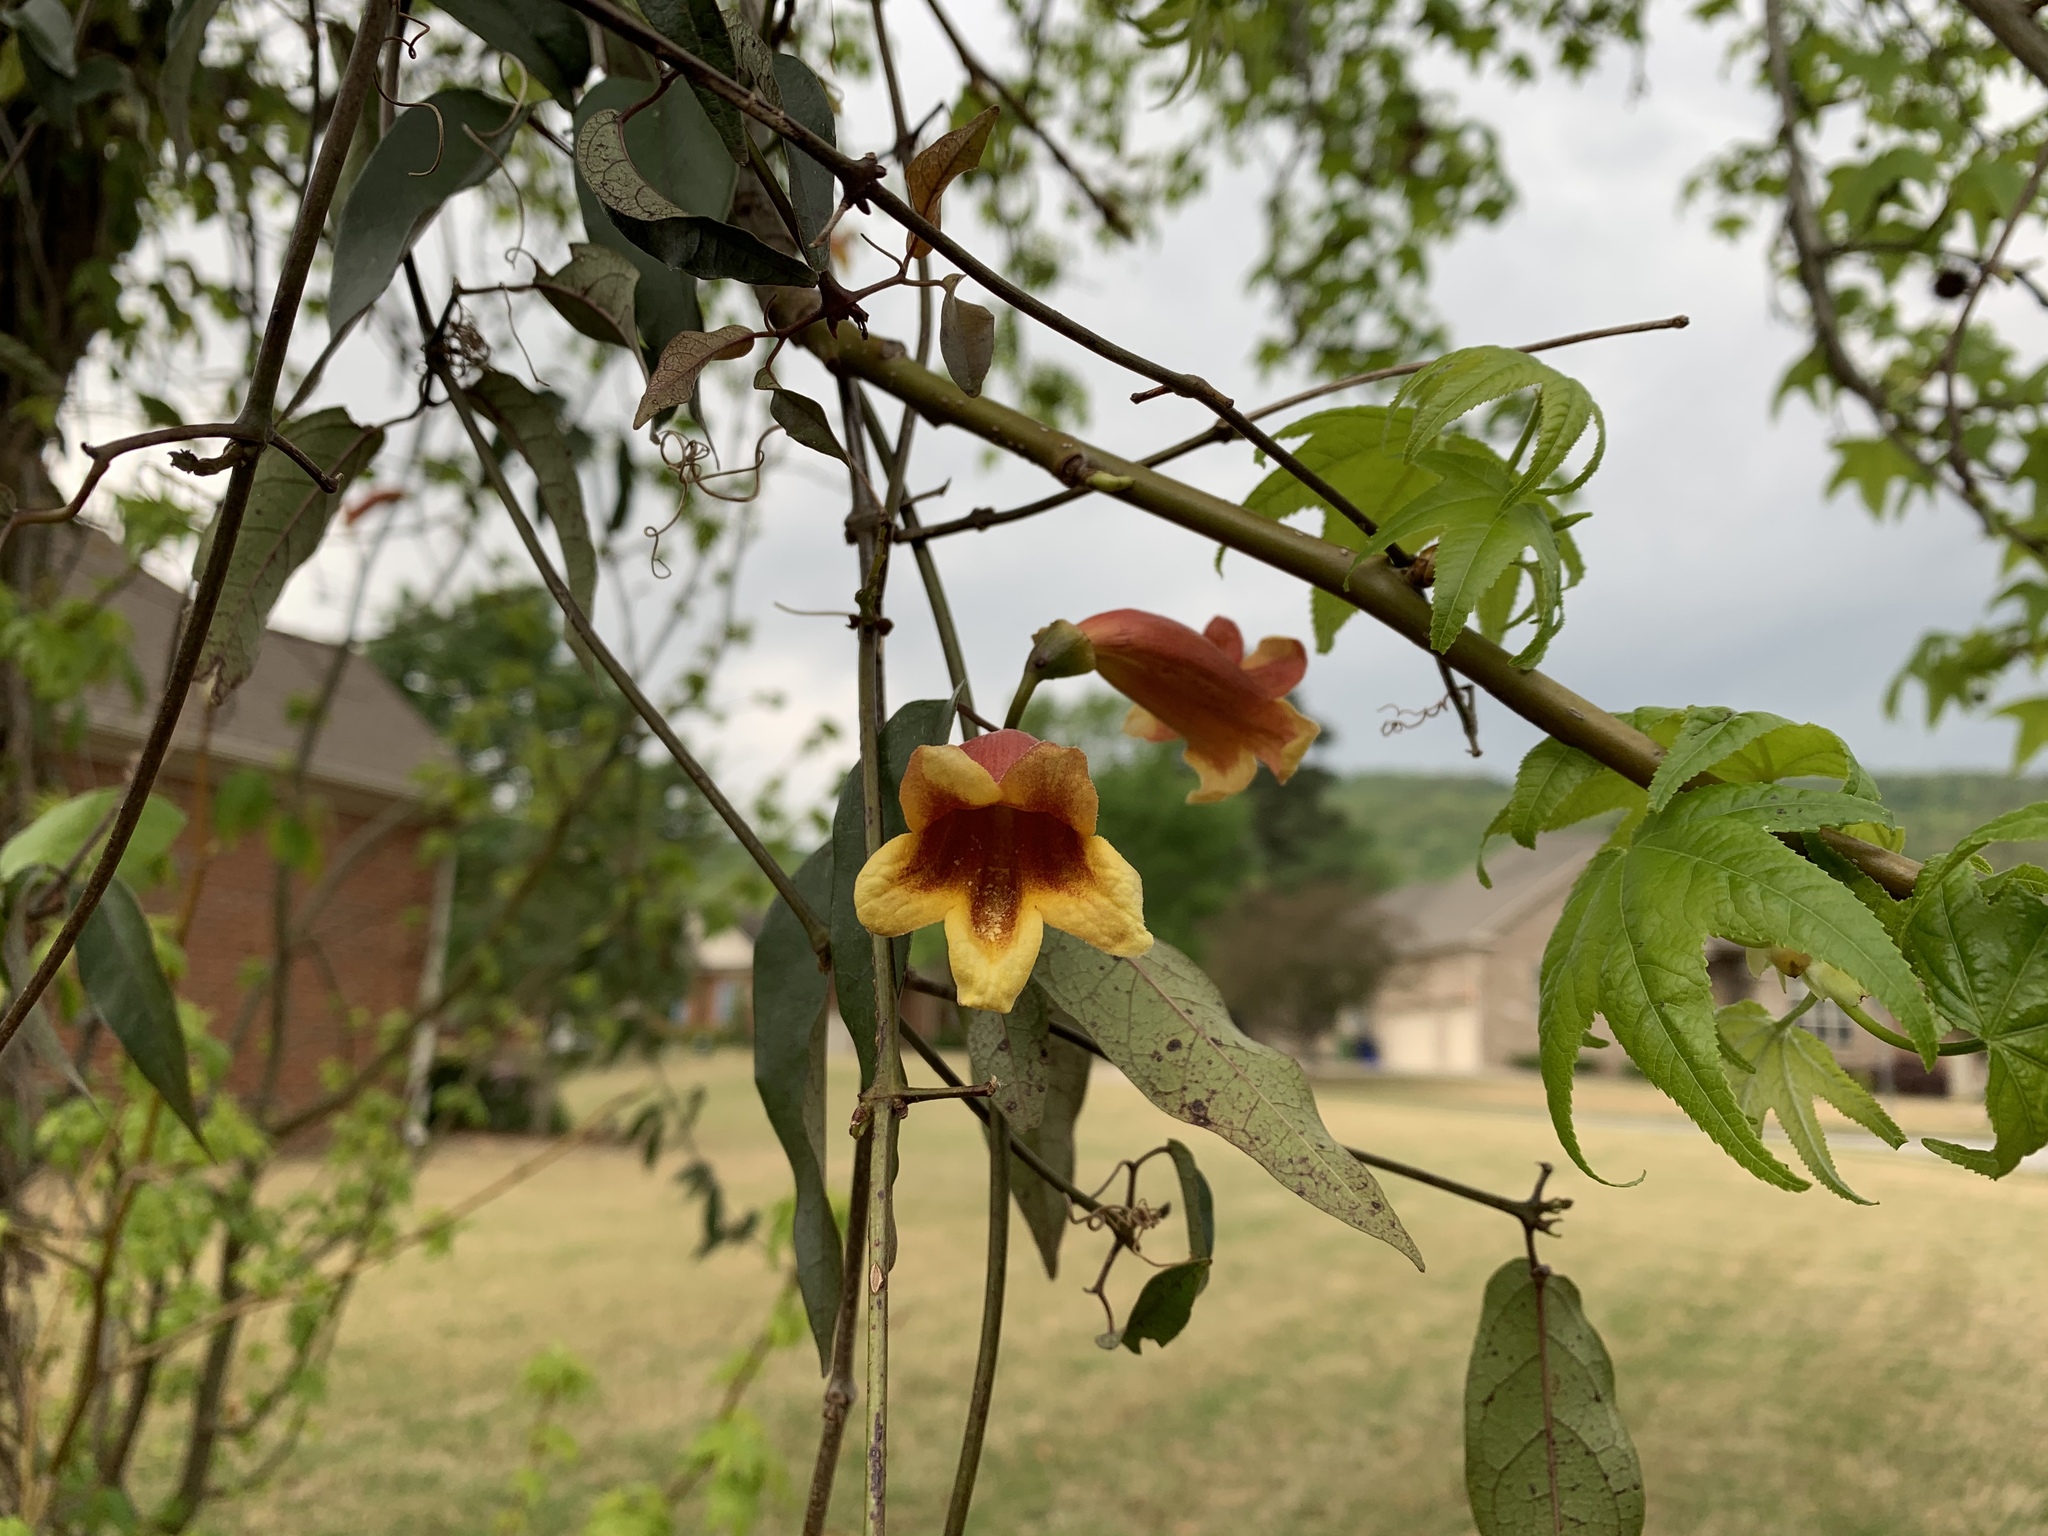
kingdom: Plantae
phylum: Tracheophyta
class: Magnoliopsida
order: Lamiales
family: Bignoniaceae
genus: Bignonia
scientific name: Bignonia capreolata
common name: Crossvine
